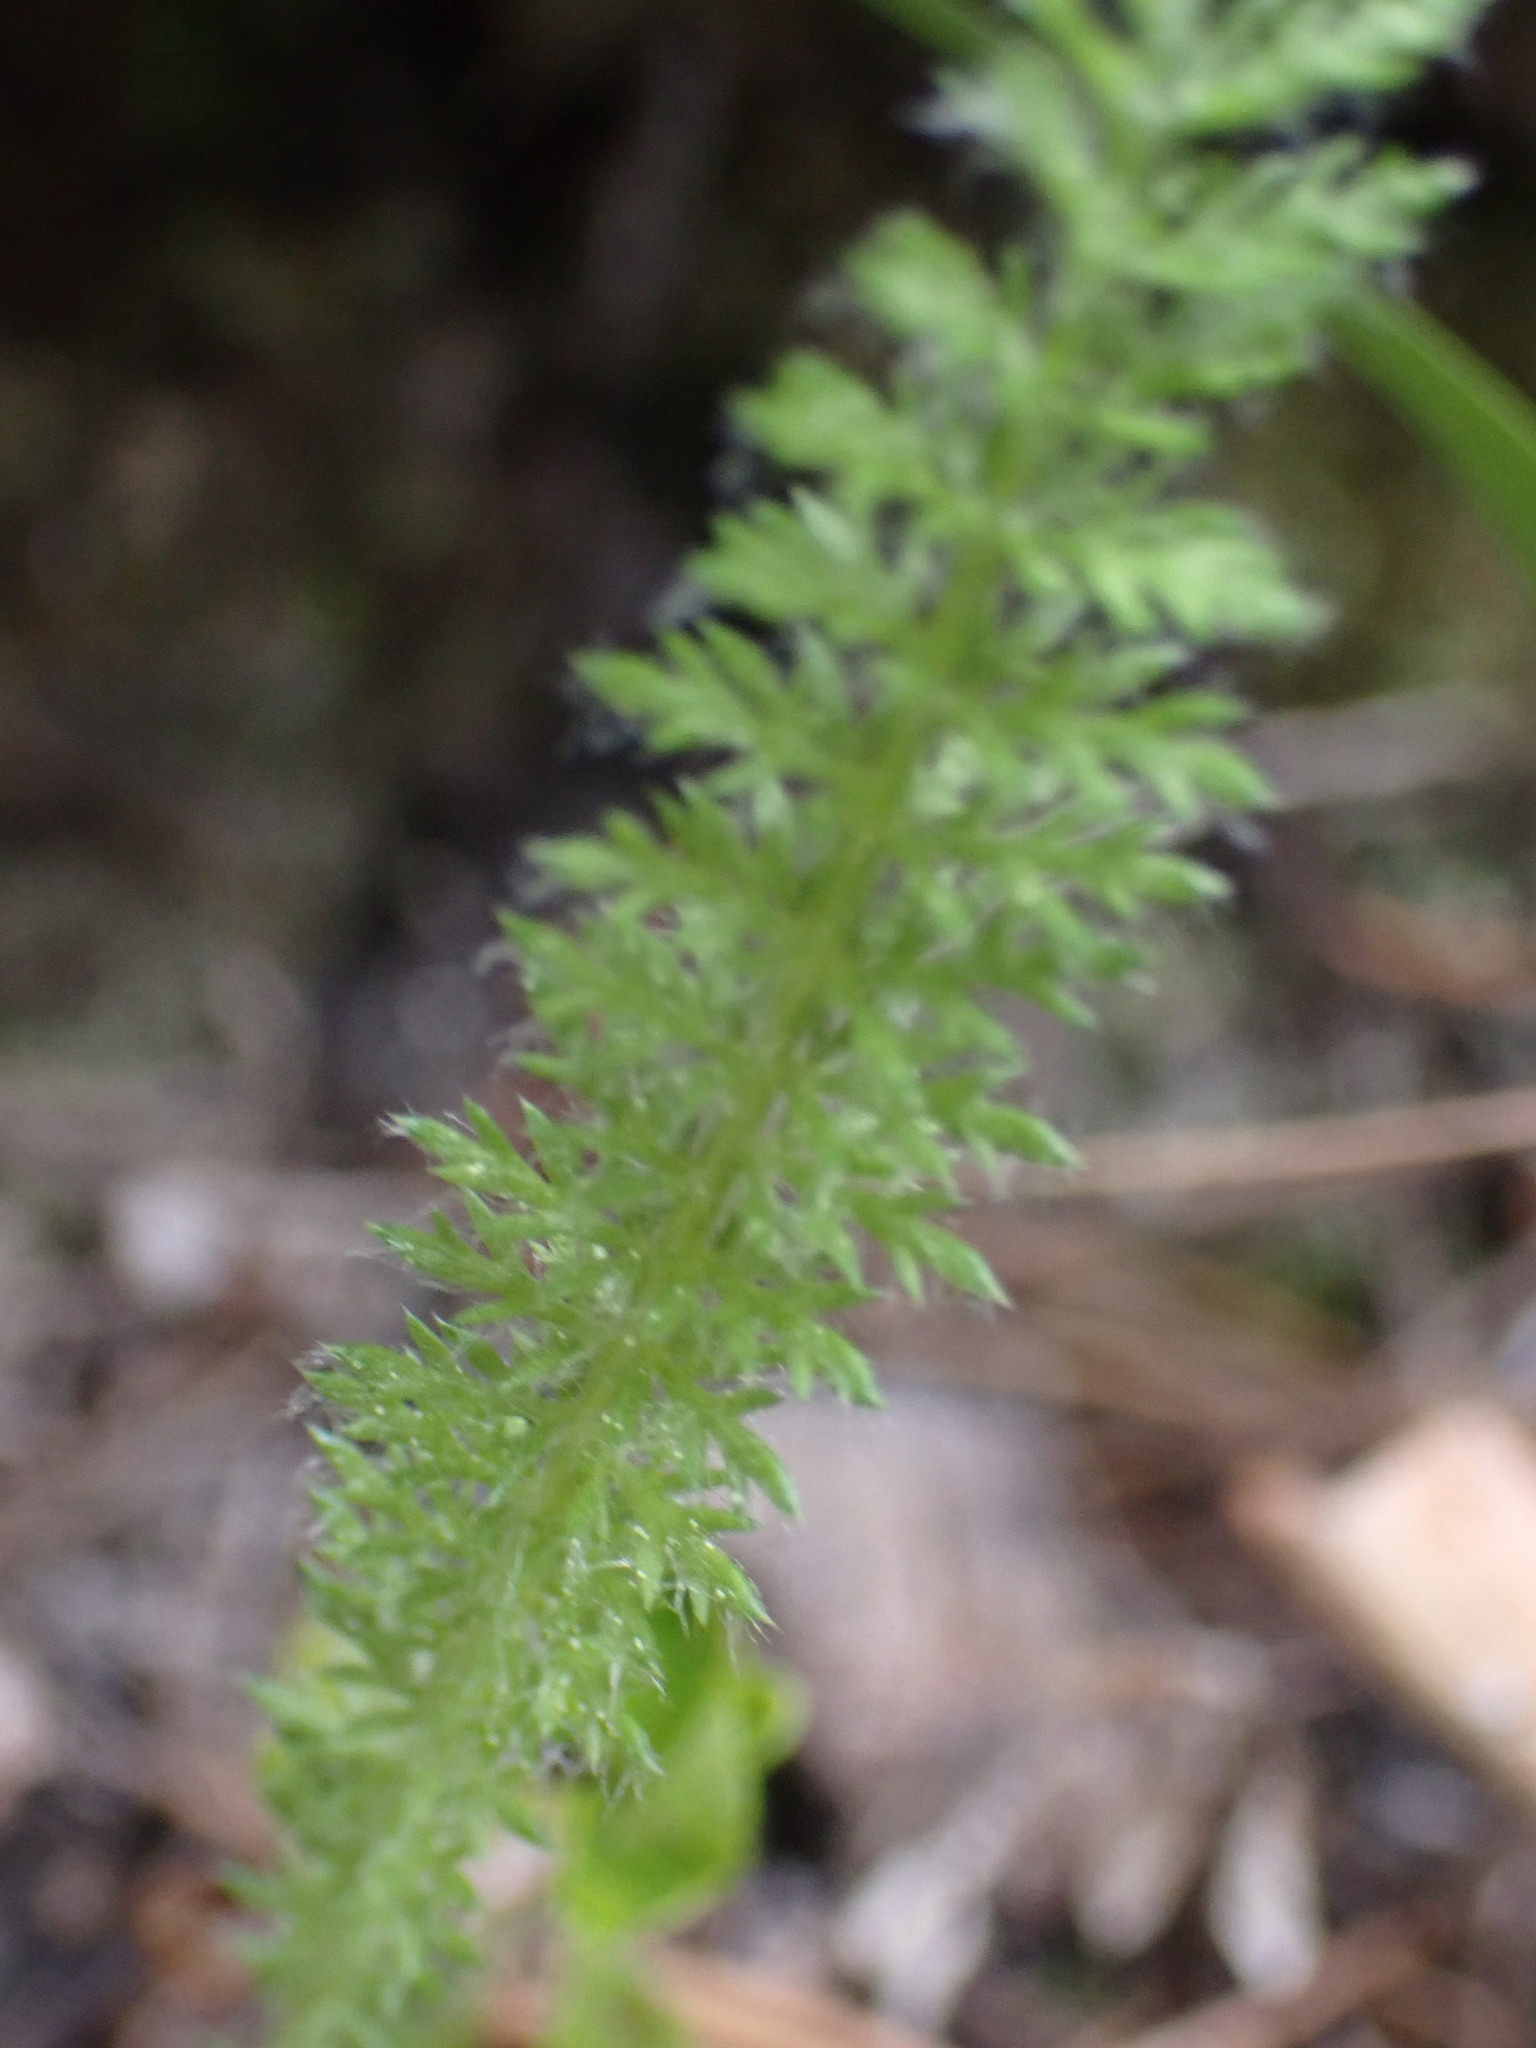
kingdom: Plantae
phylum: Tracheophyta
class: Magnoliopsida
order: Asterales
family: Asteraceae
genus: Achillea
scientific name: Achillea millefolium
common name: Yarrow
